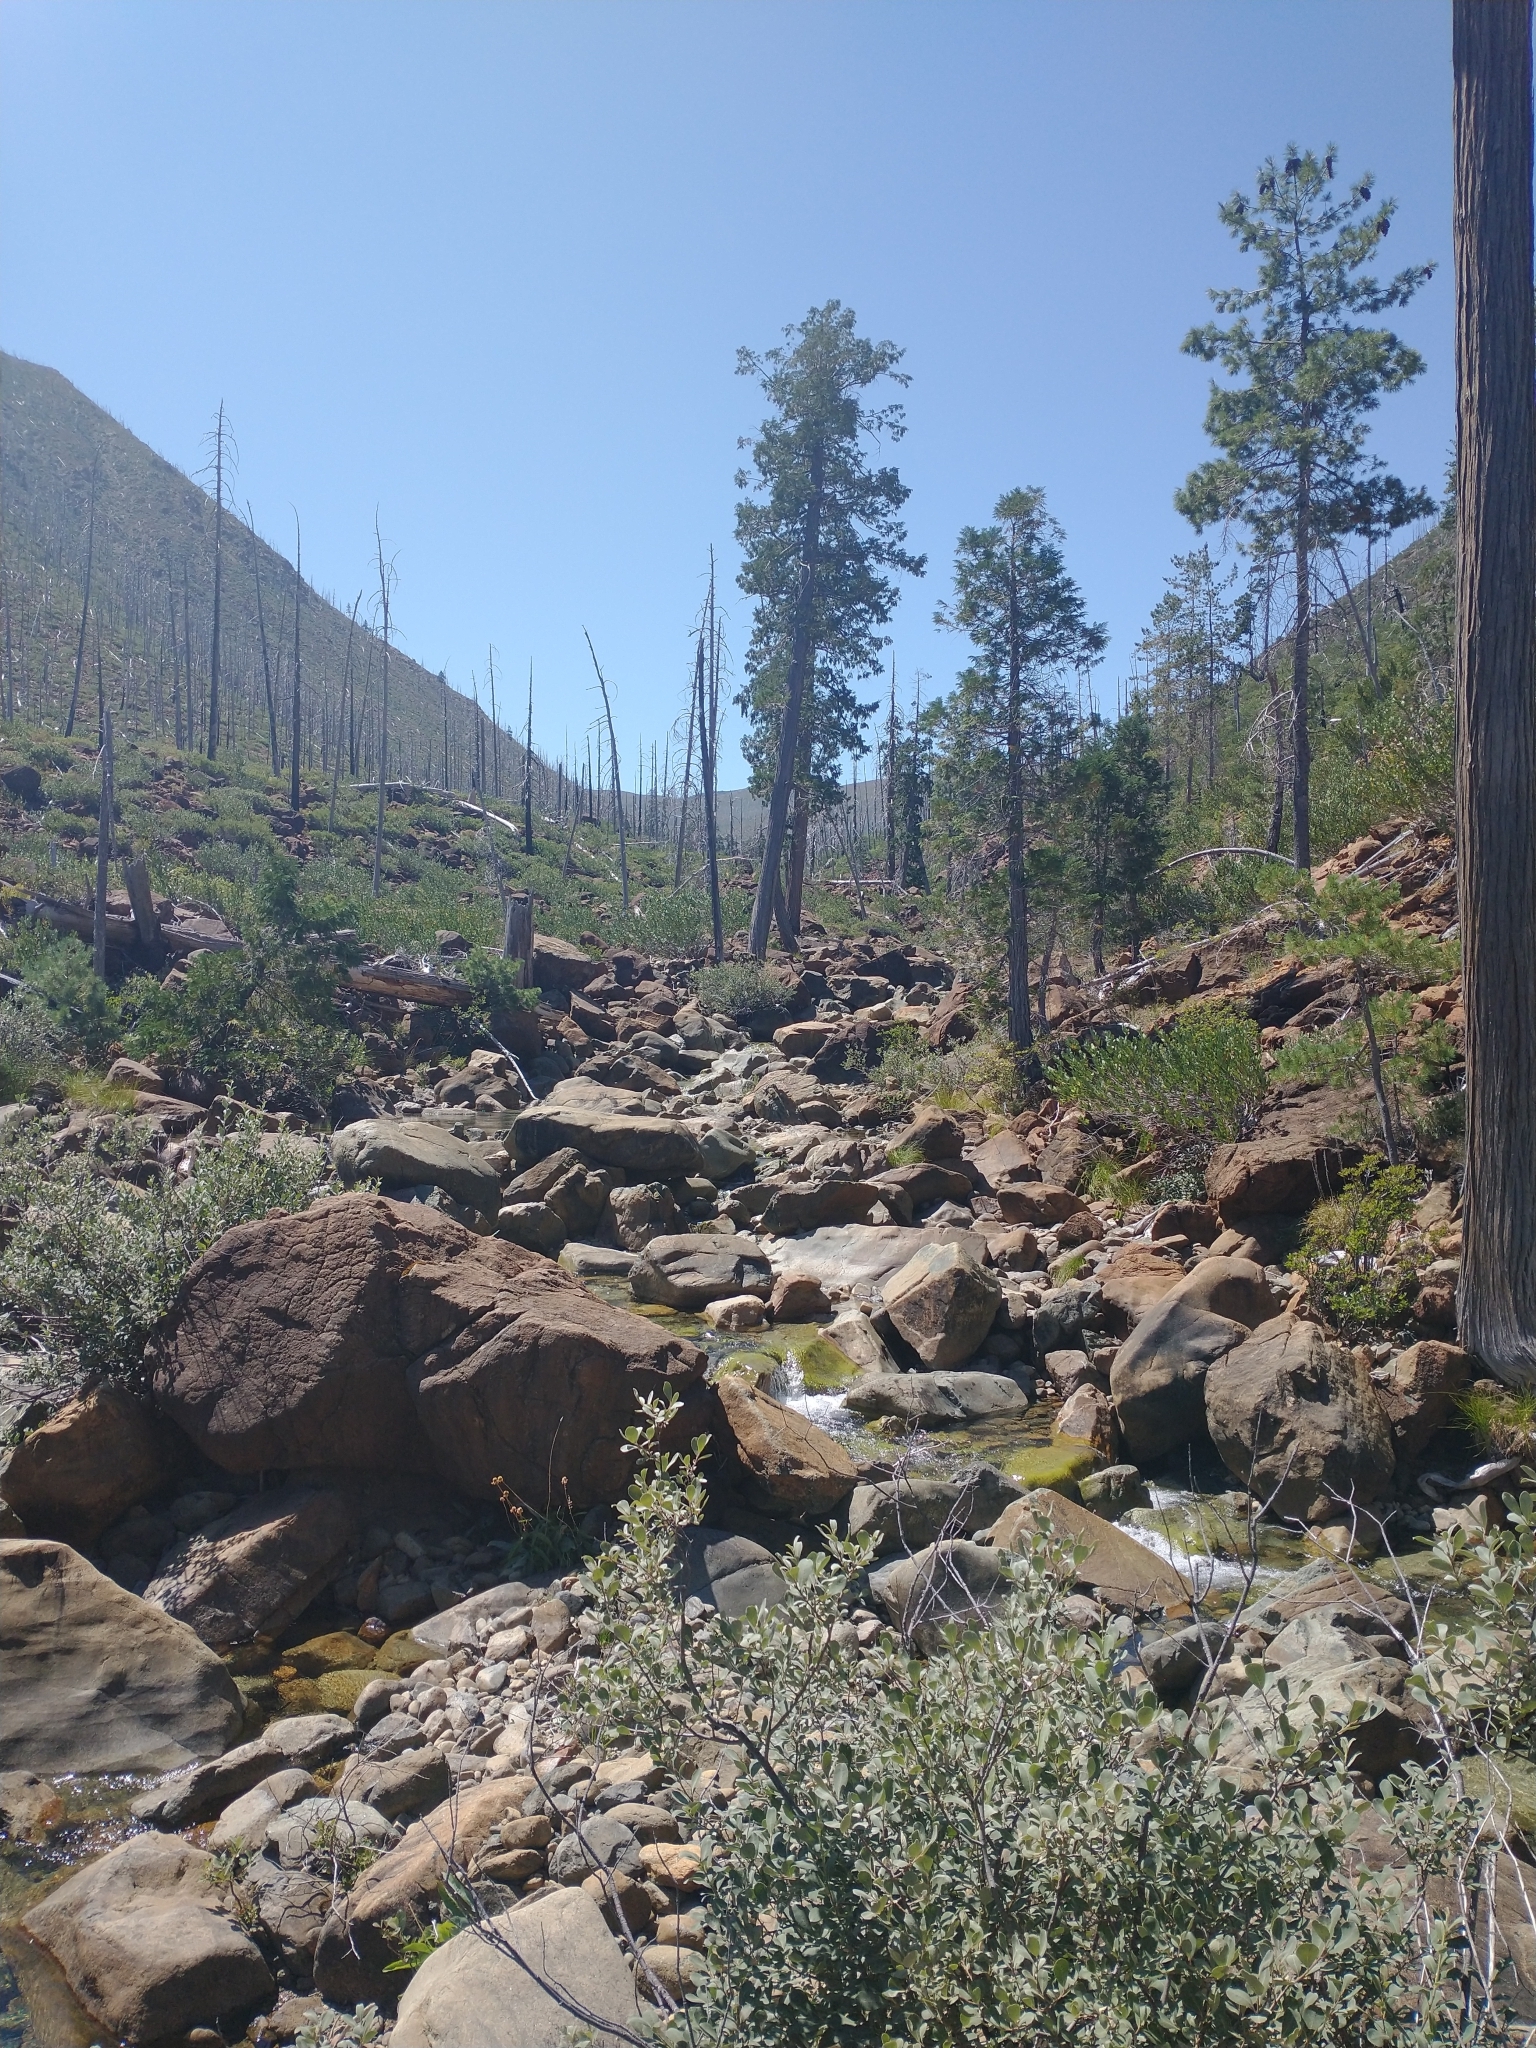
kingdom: Plantae
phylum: Tracheophyta
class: Pinopsida
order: Pinales
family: Cupressaceae
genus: Chamaecyparis
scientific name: Chamaecyparis lawsoniana
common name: Lawson's cypress
